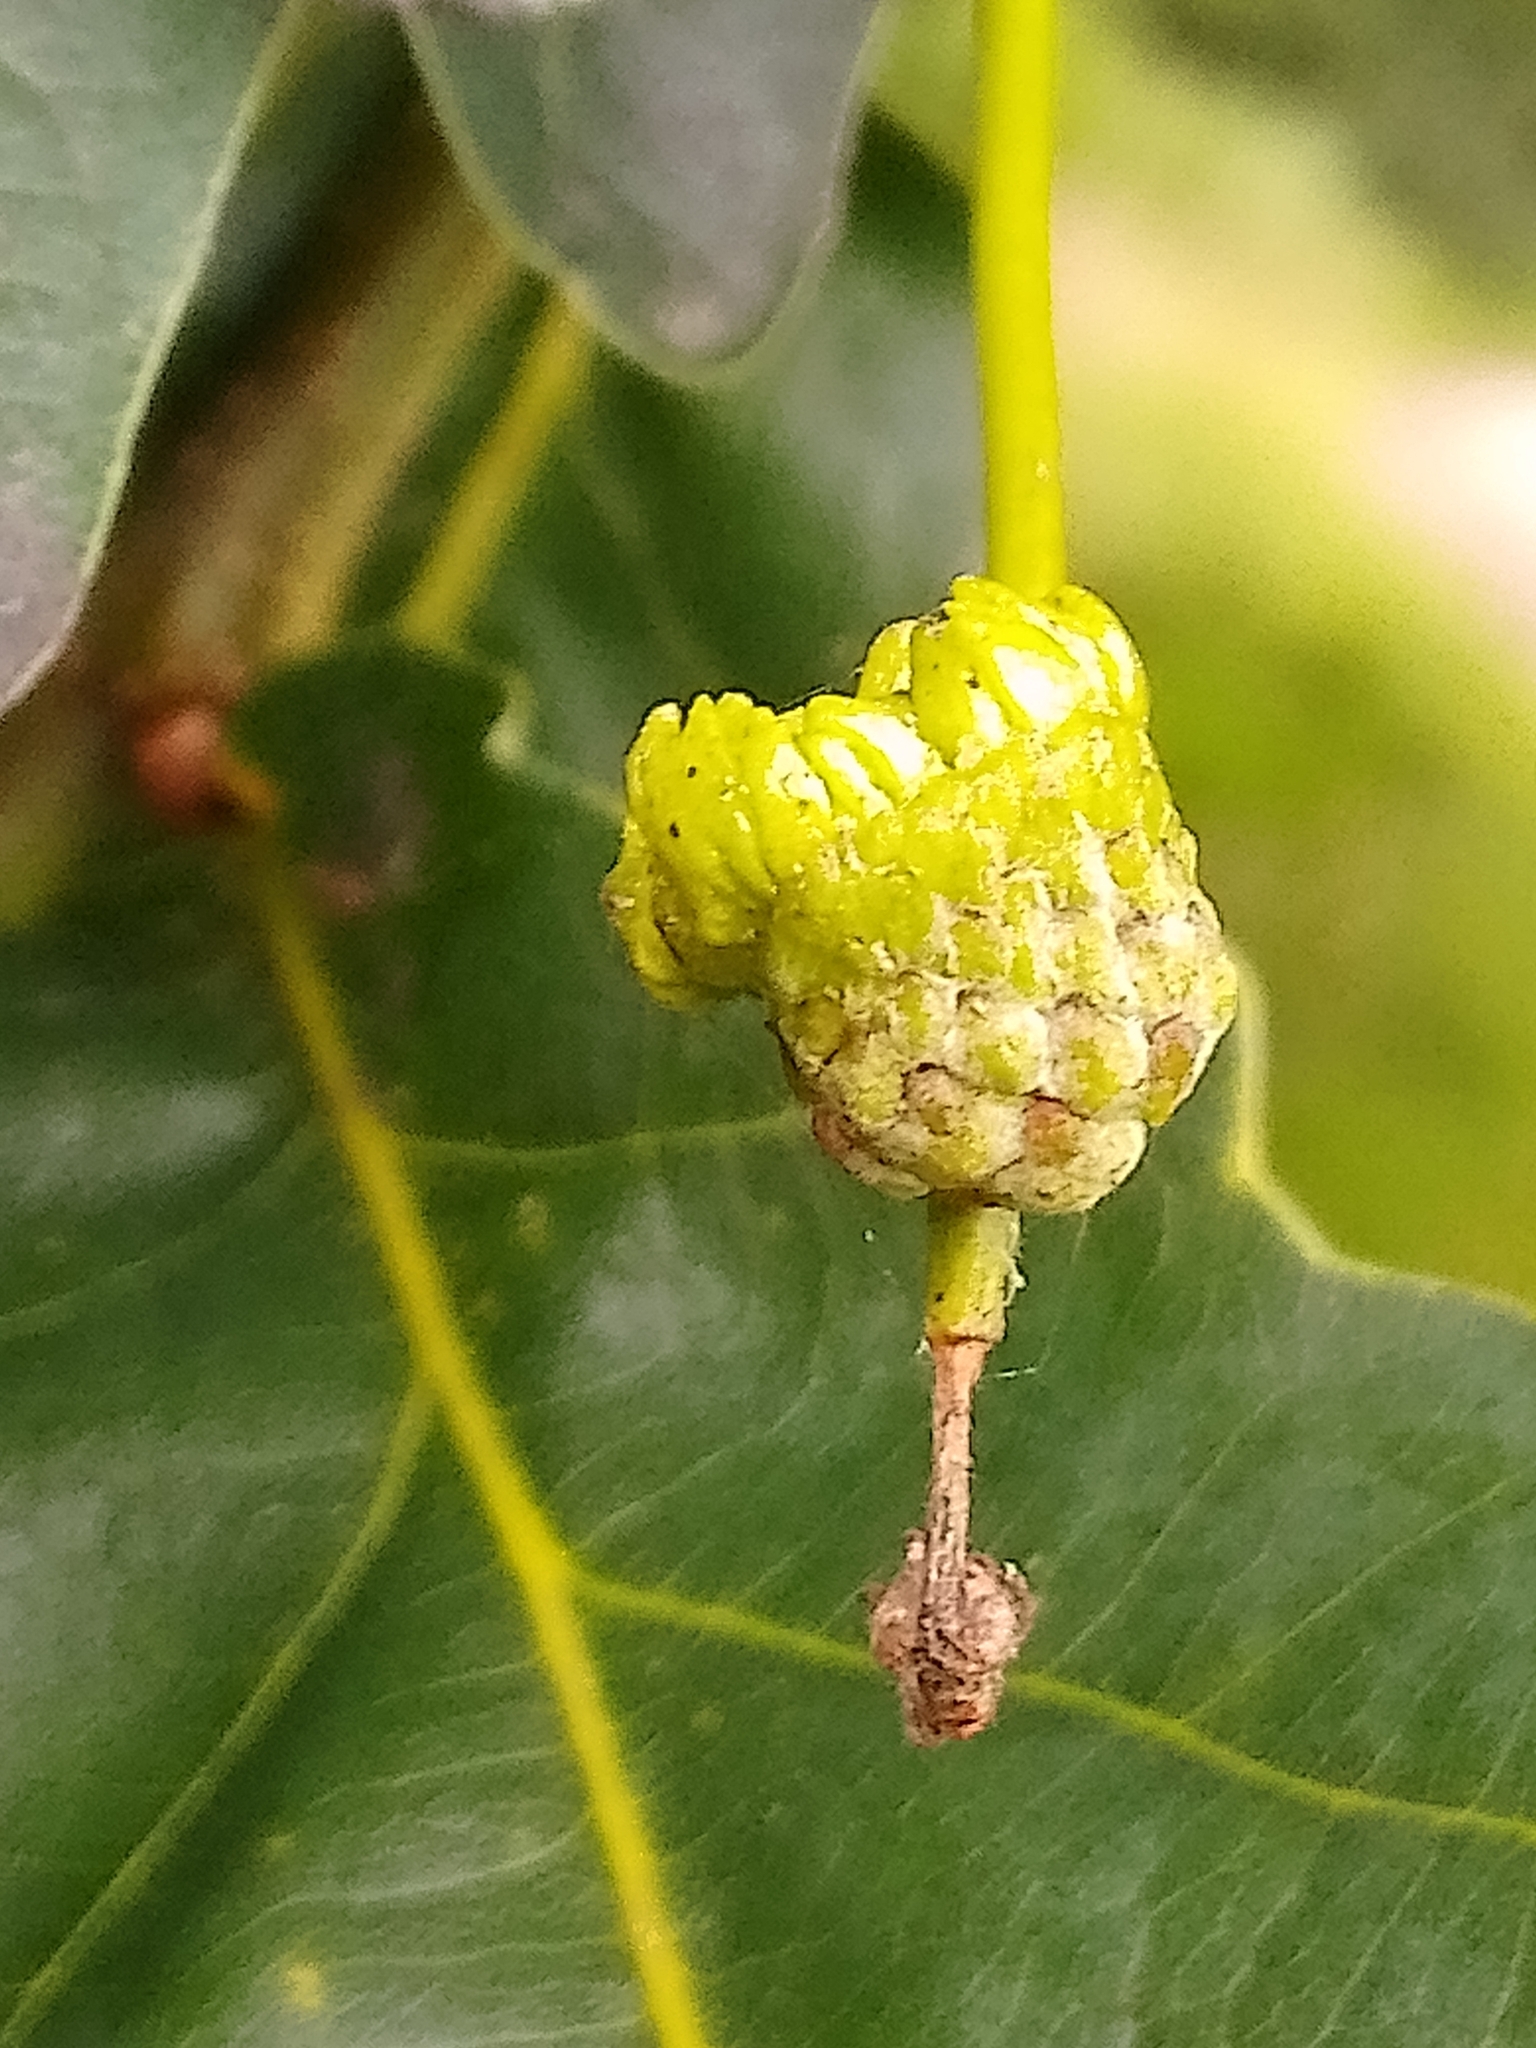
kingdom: Animalia
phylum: Arthropoda
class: Insecta
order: Hymenoptera
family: Cynipidae
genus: Andricus
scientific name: Andricus quercuscalicis
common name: Knopper gall
